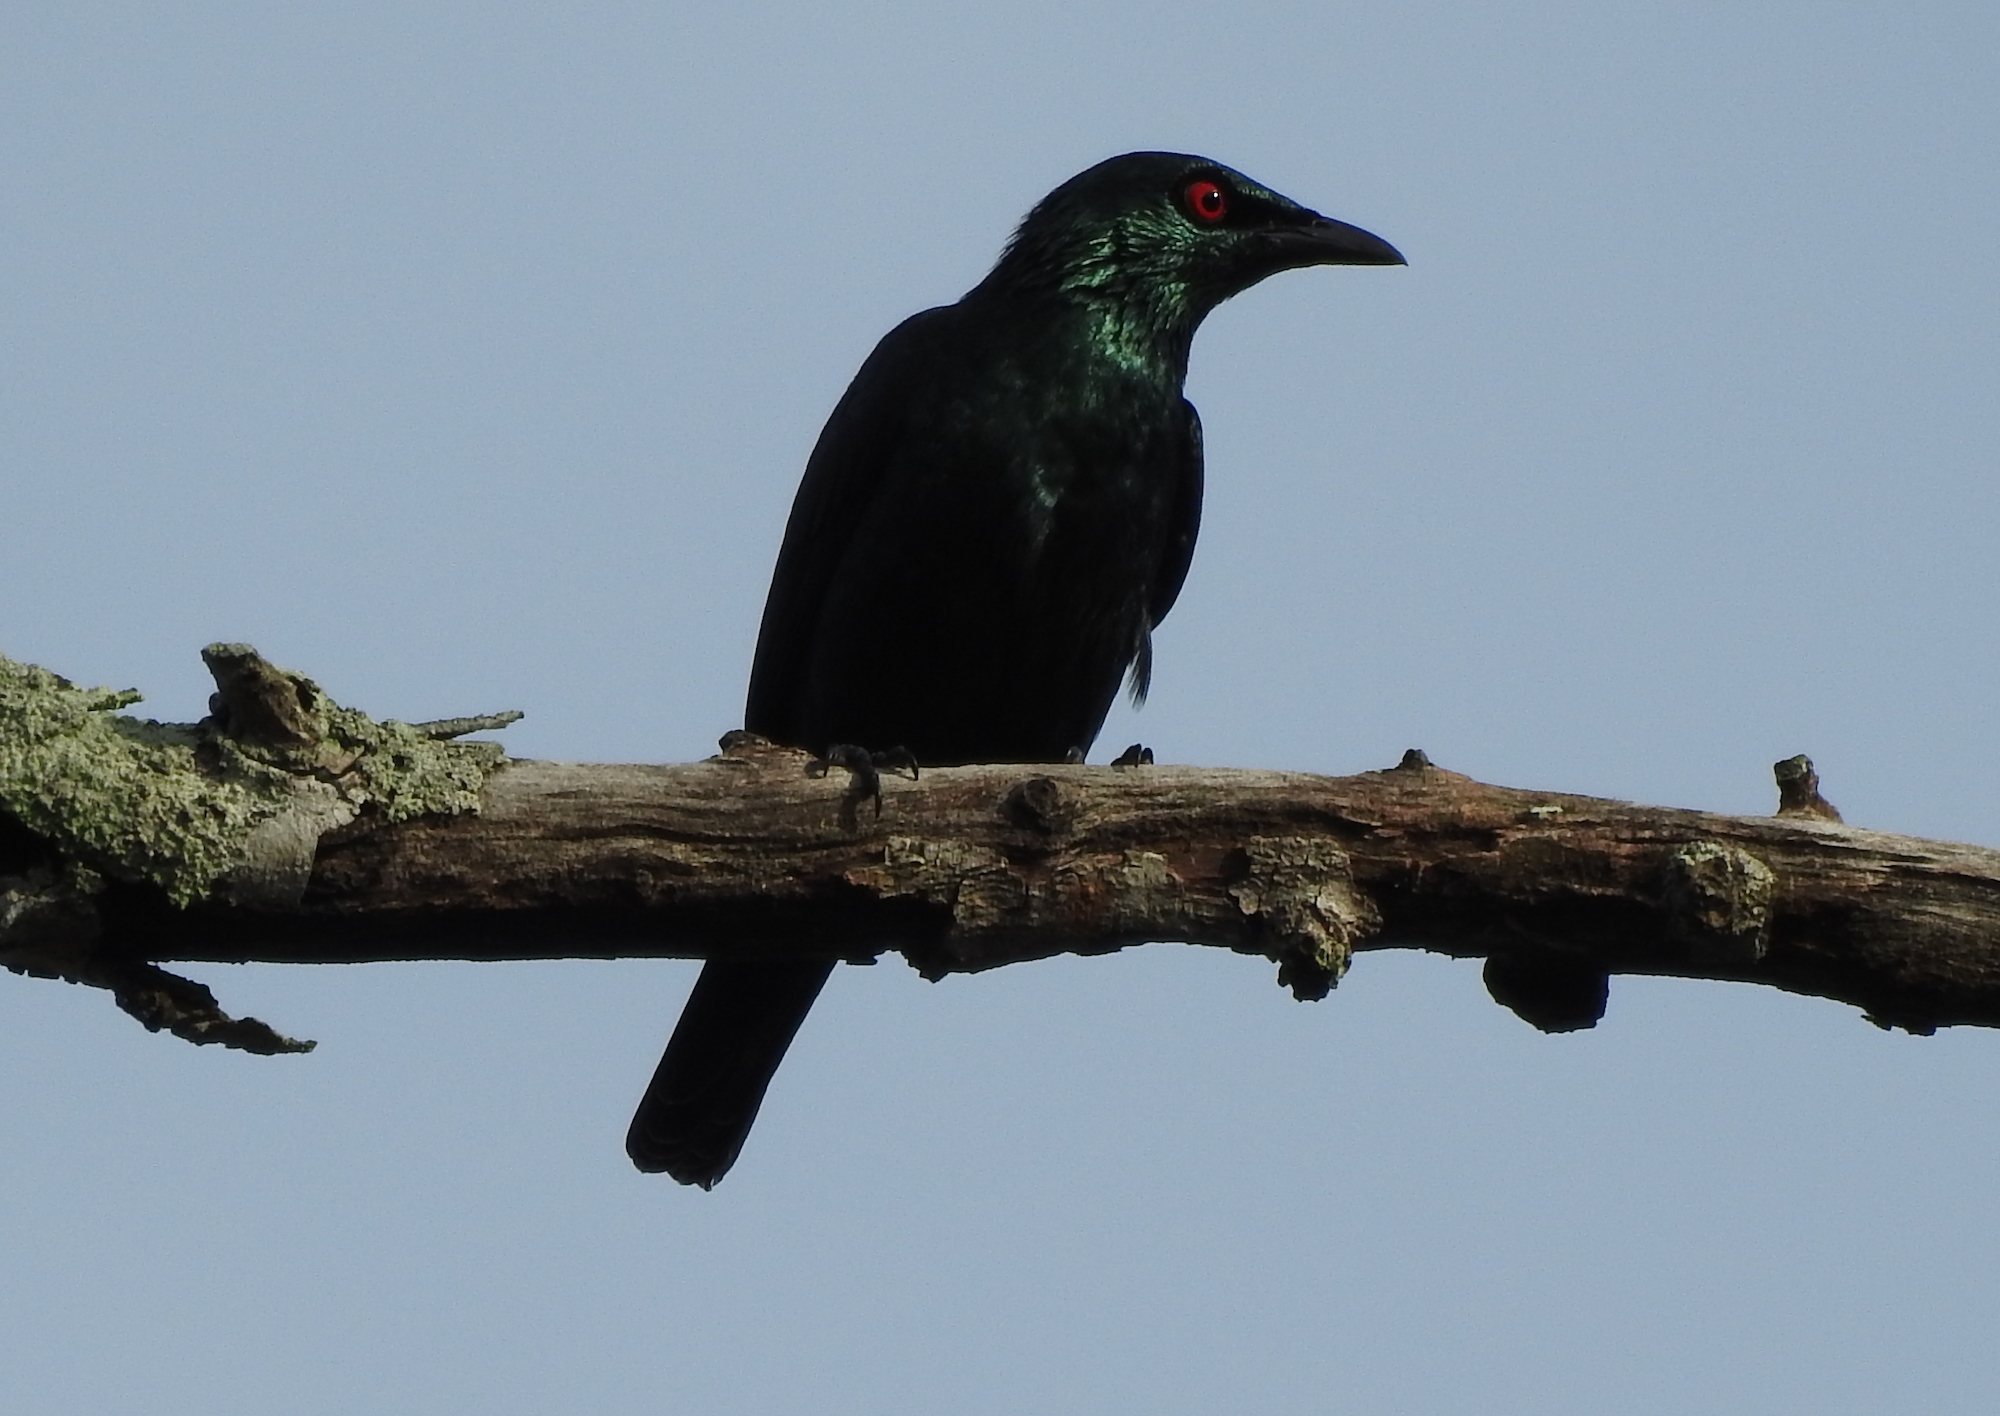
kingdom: Animalia
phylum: Chordata
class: Aves
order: Passeriformes
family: Sturnidae
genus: Aplonis
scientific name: Aplonis panayensis
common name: Asian glossy starling
